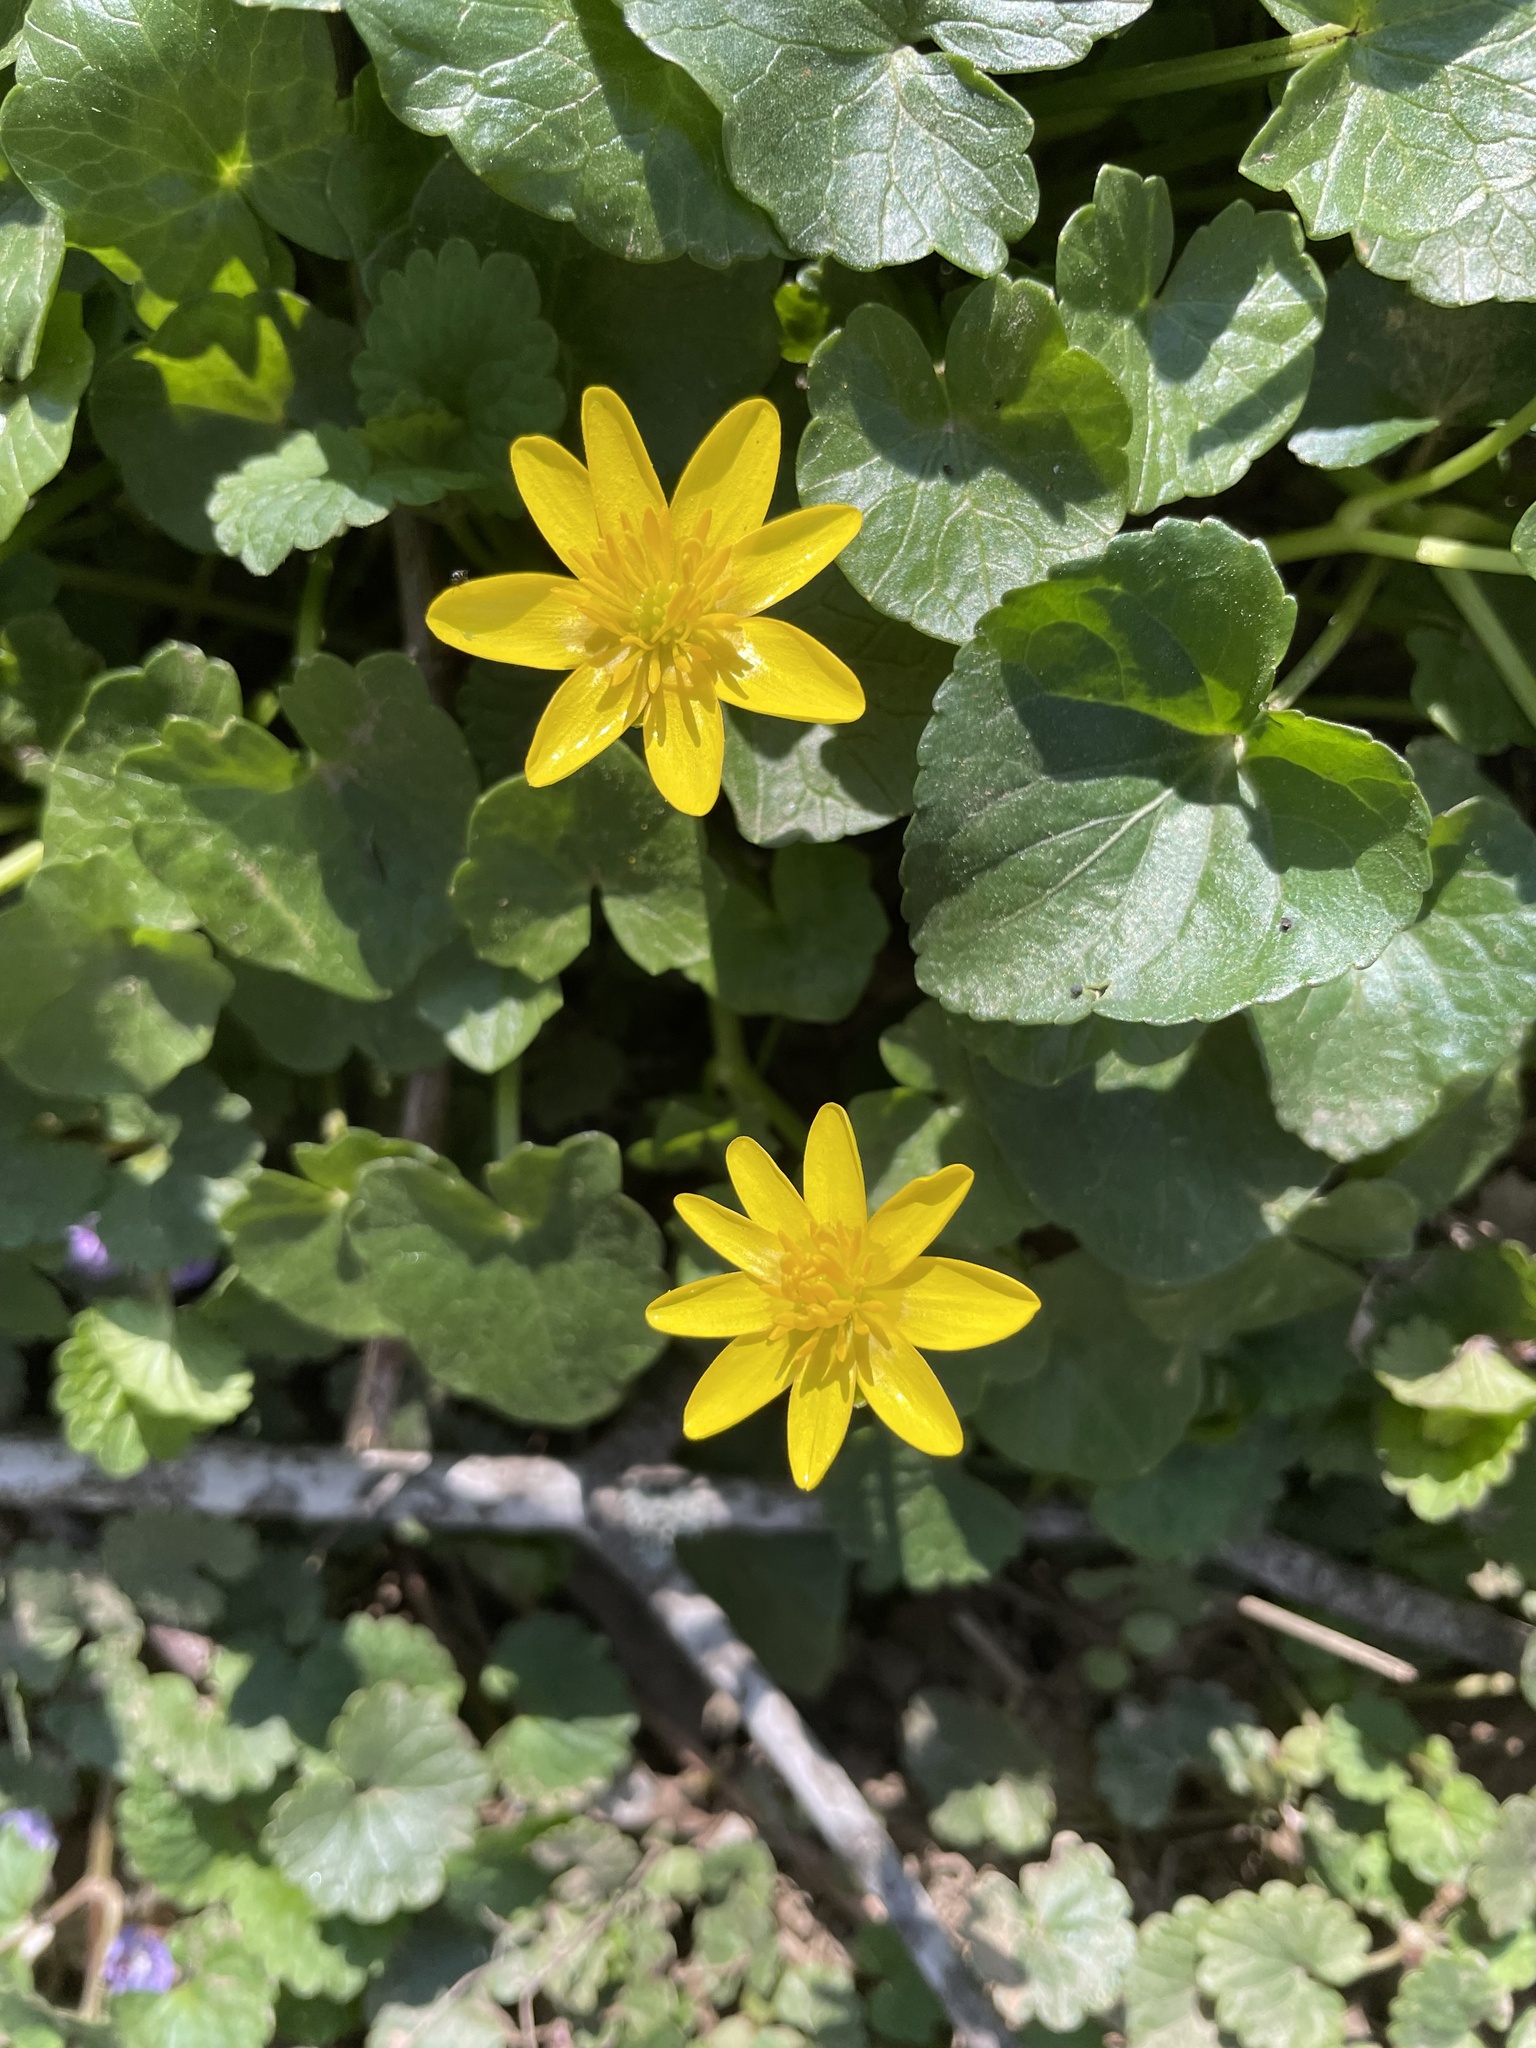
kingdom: Plantae
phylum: Tracheophyta
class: Magnoliopsida
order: Ranunculales
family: Ranunculaceae
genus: Ficaria
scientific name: Ficaria verna
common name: Lesser celandine
